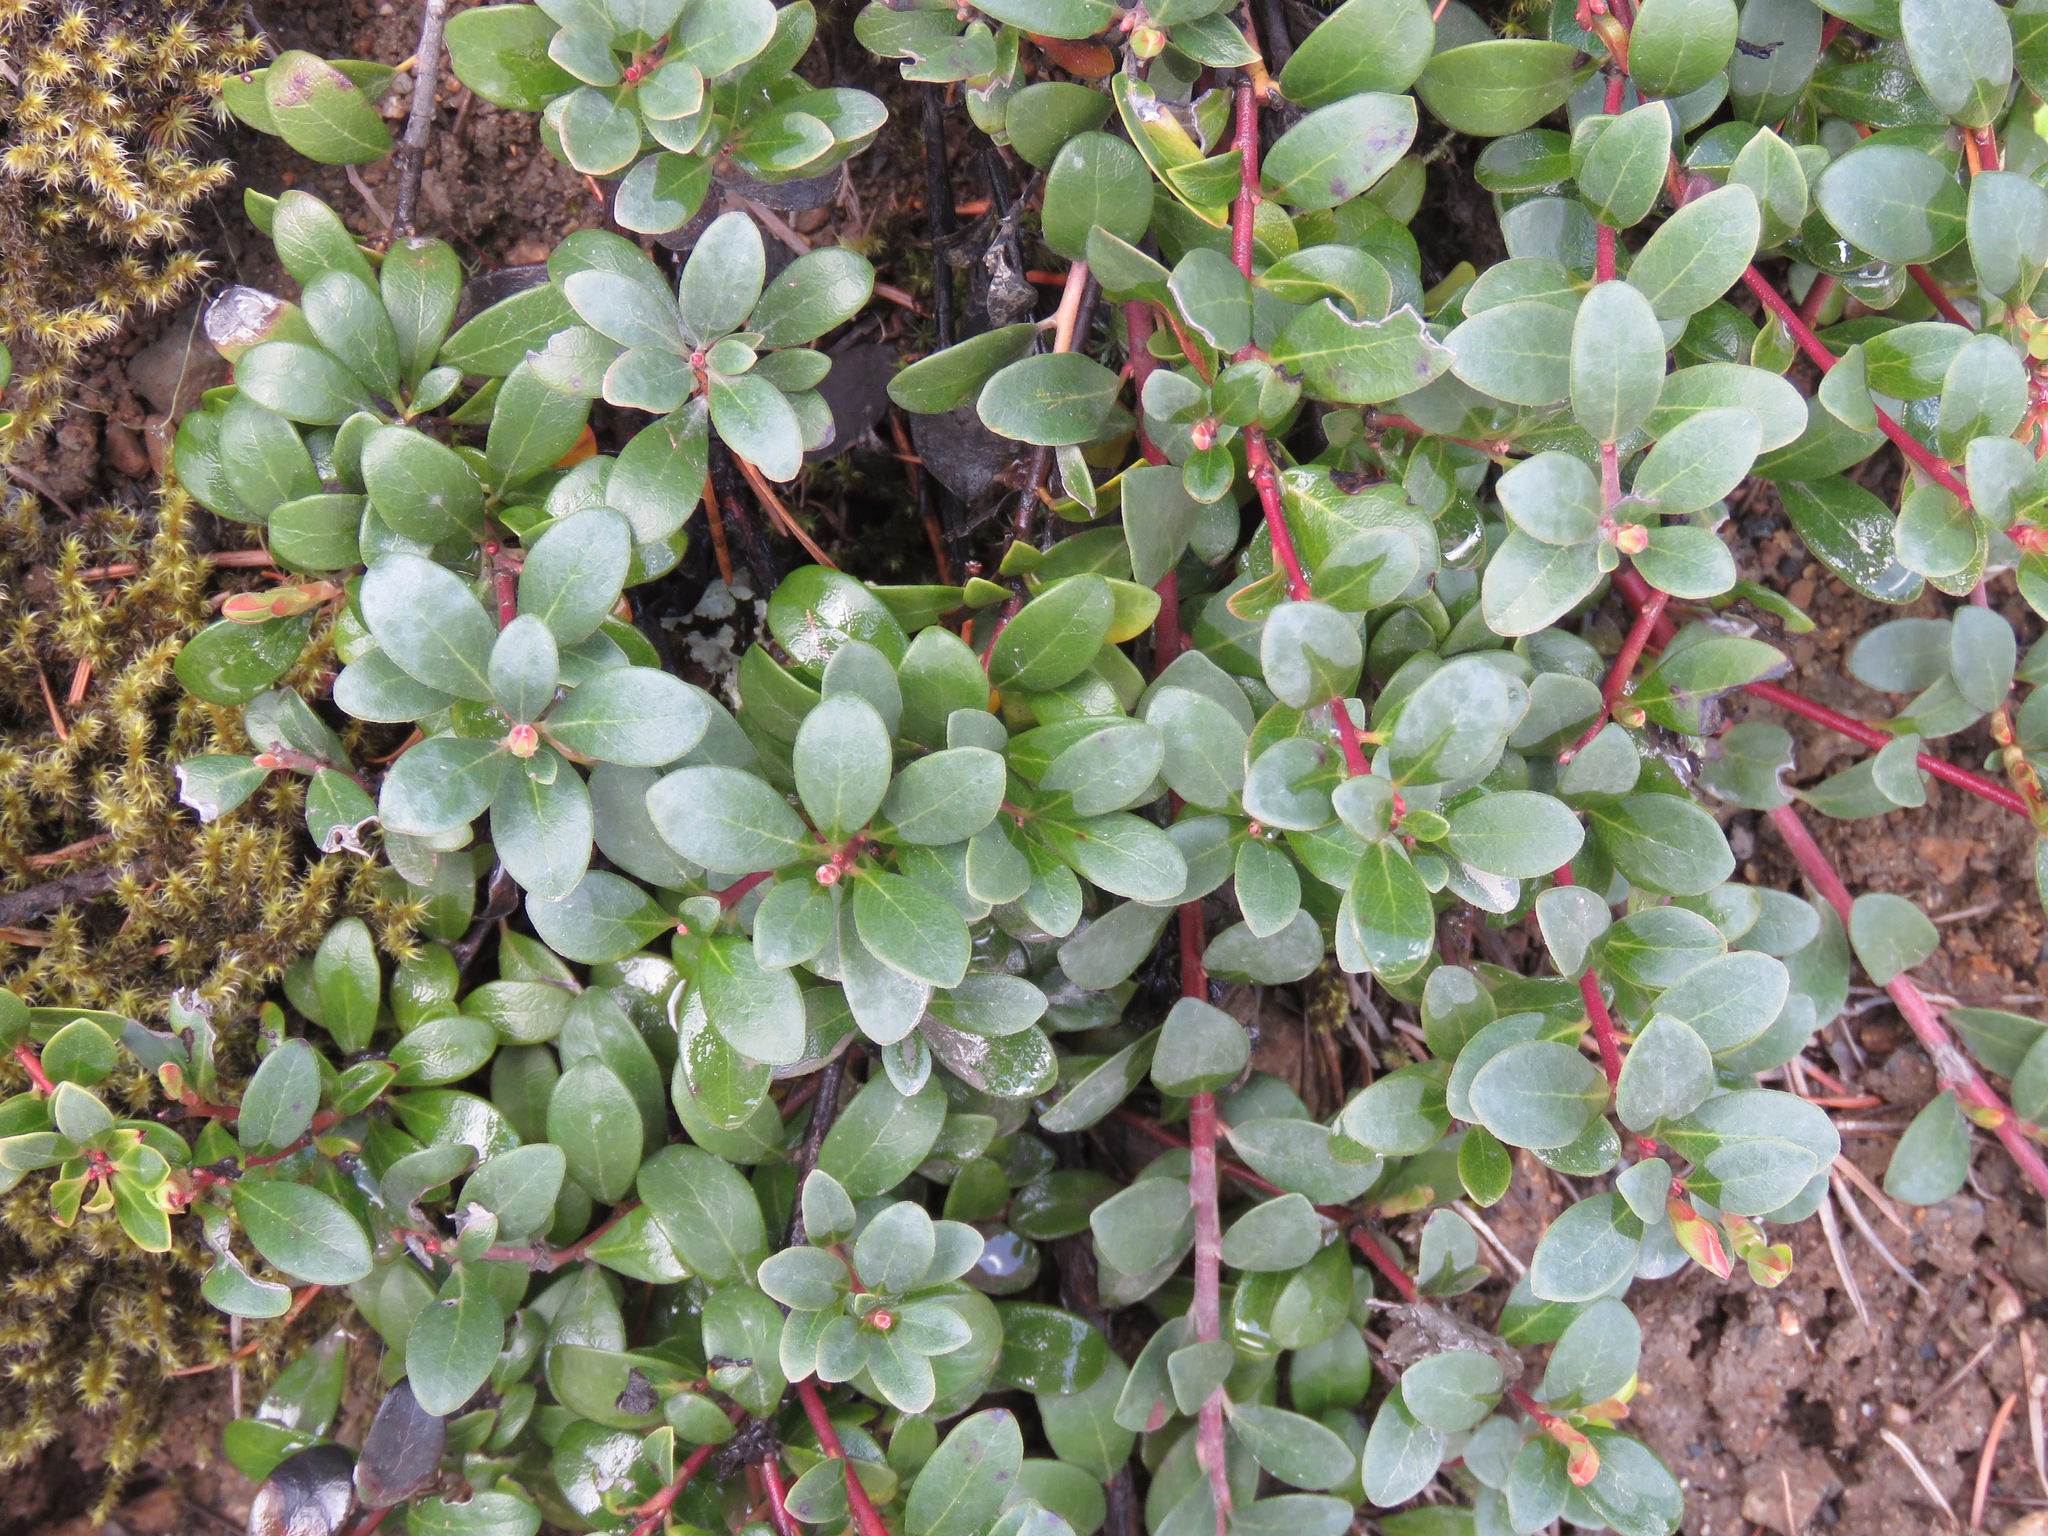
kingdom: Plantae
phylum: Tracheophyta
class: Magnoliopsida
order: Ericales
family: Ericaceae
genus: Arctostaphylos
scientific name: Arctostaphylos uva-ursi
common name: Bearberry
